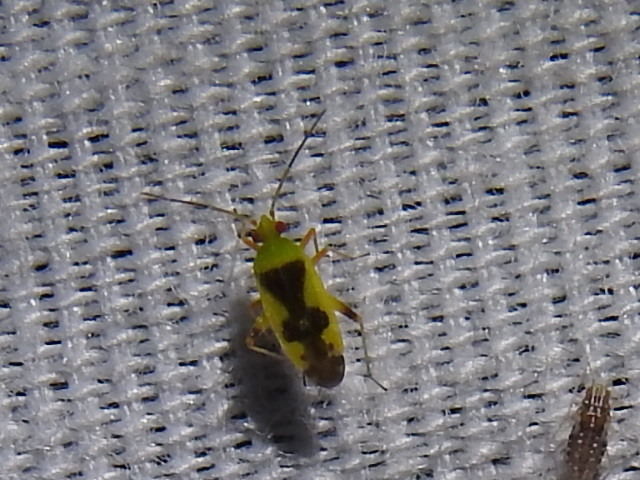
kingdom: Animalia
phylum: Arthropoda
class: Insecta
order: Hemiptera
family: Miridae
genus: Reuteroscopus
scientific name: Reuteroscopus femoralis
